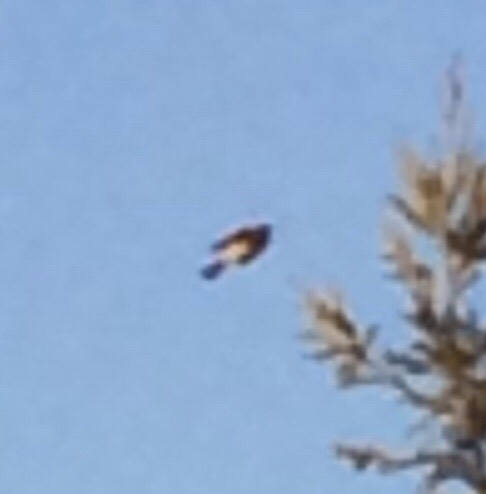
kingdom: Animalia
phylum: Chordata
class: Aves
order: Passeriformes
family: Tyrannidae
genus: Sayornis
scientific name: Sayornis nigricans
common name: Black phoebe
